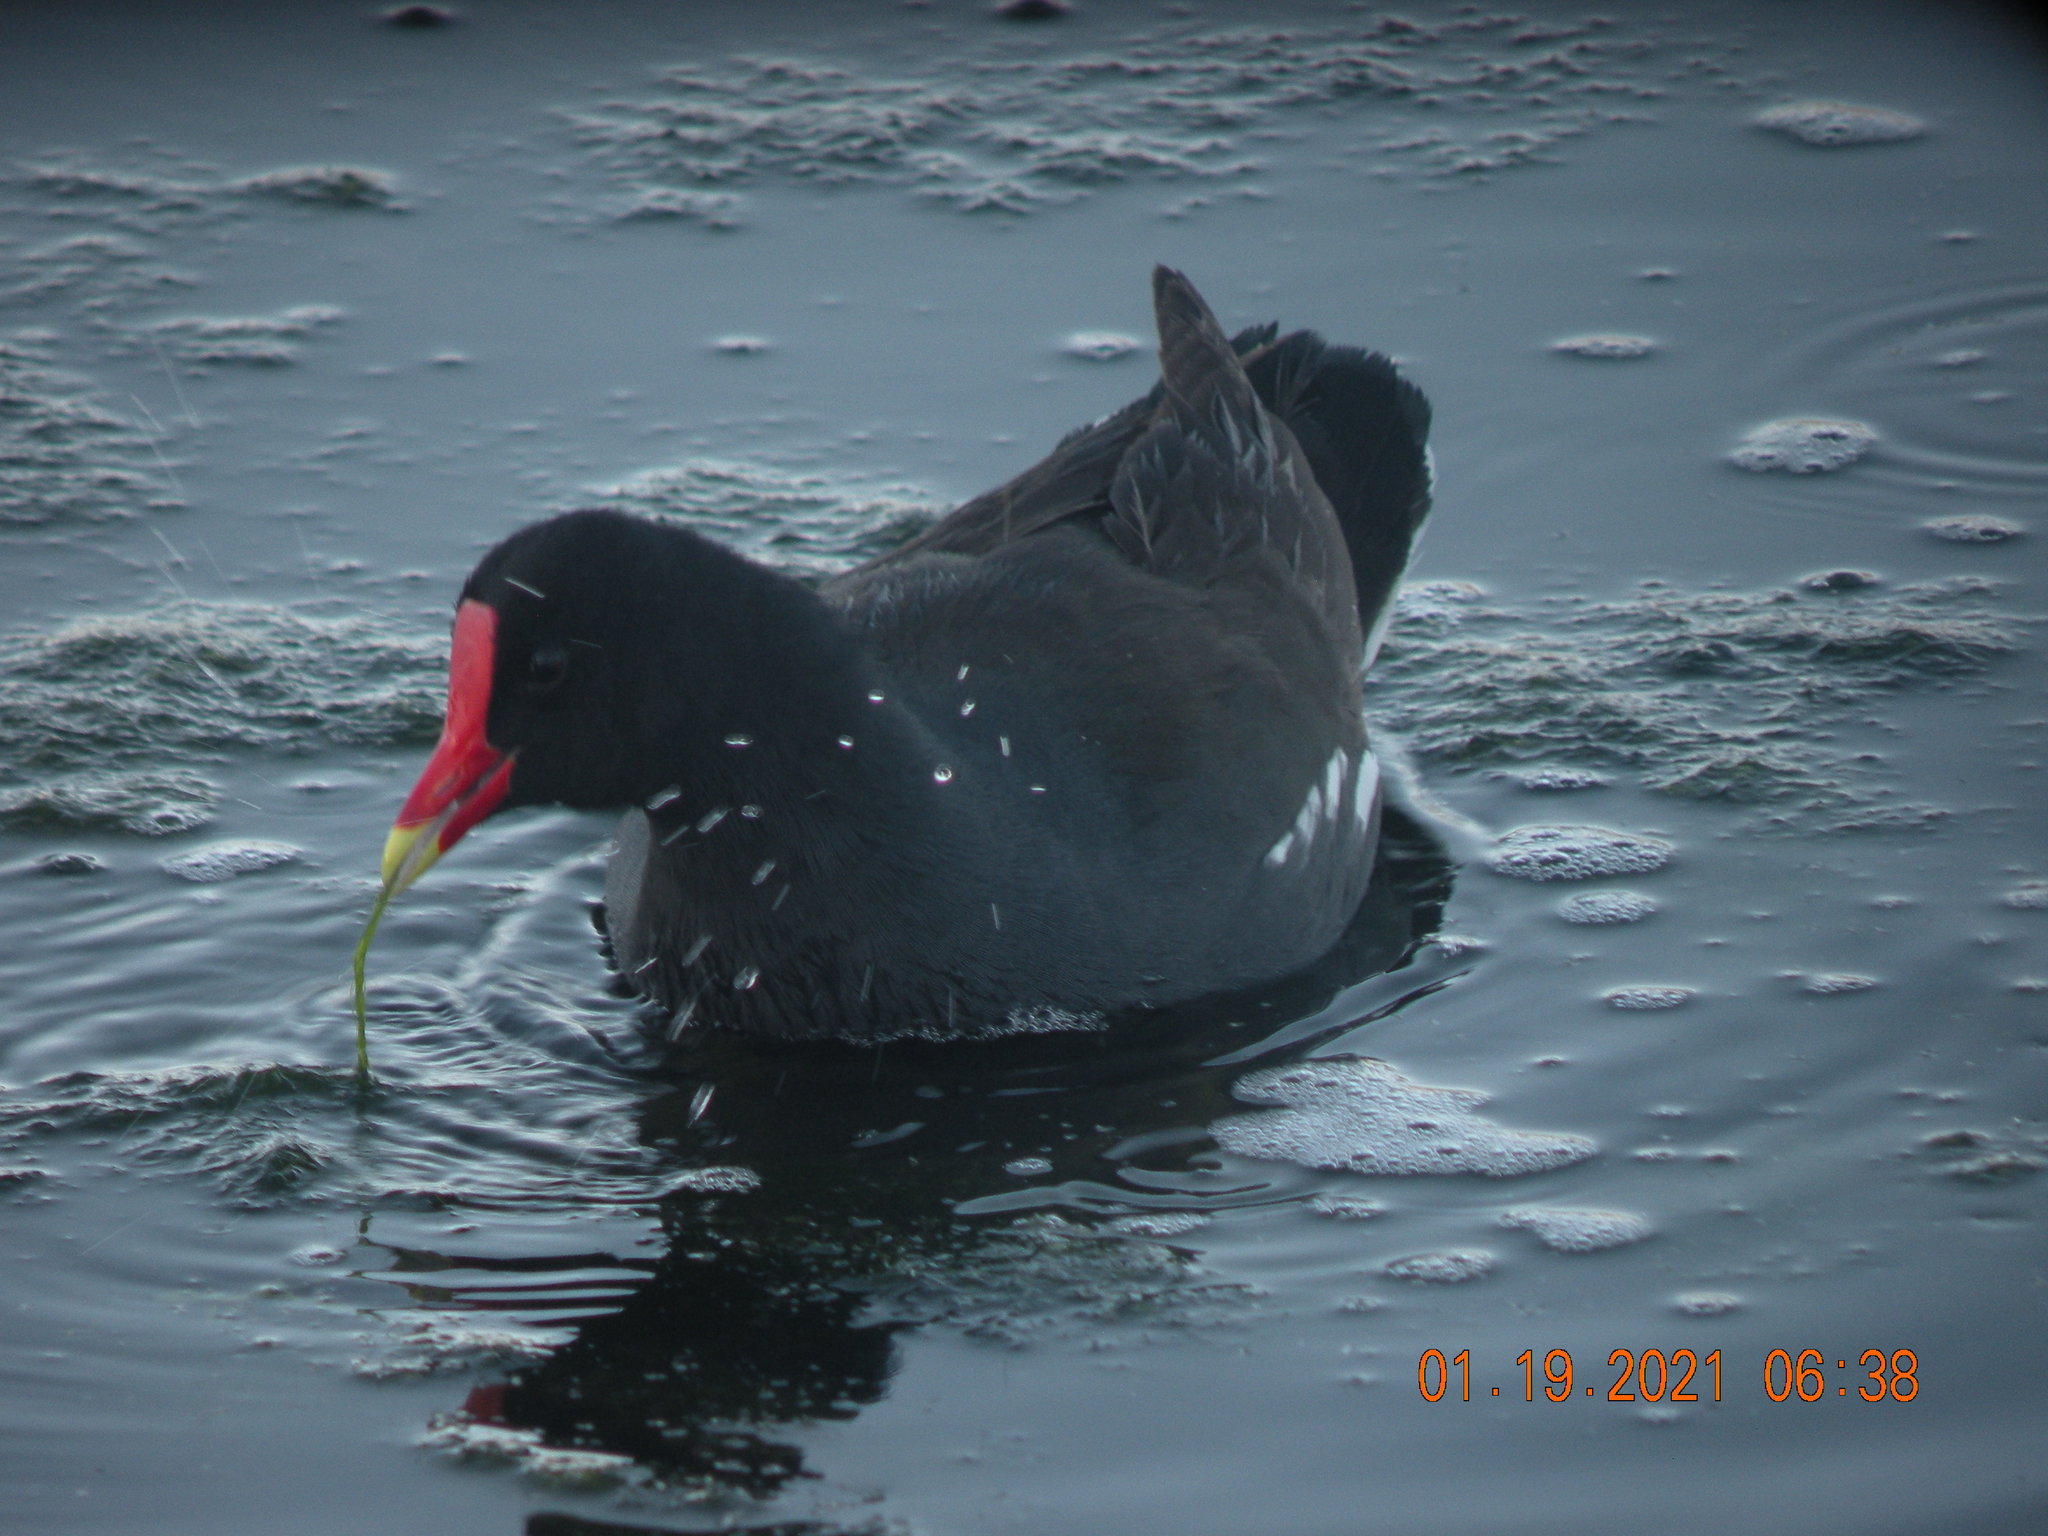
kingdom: Animalia
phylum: Chordata
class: Aves
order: Gruiformes
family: Rallidae
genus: Gallinula
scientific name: Gallinula chloropus
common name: Common moorhen
